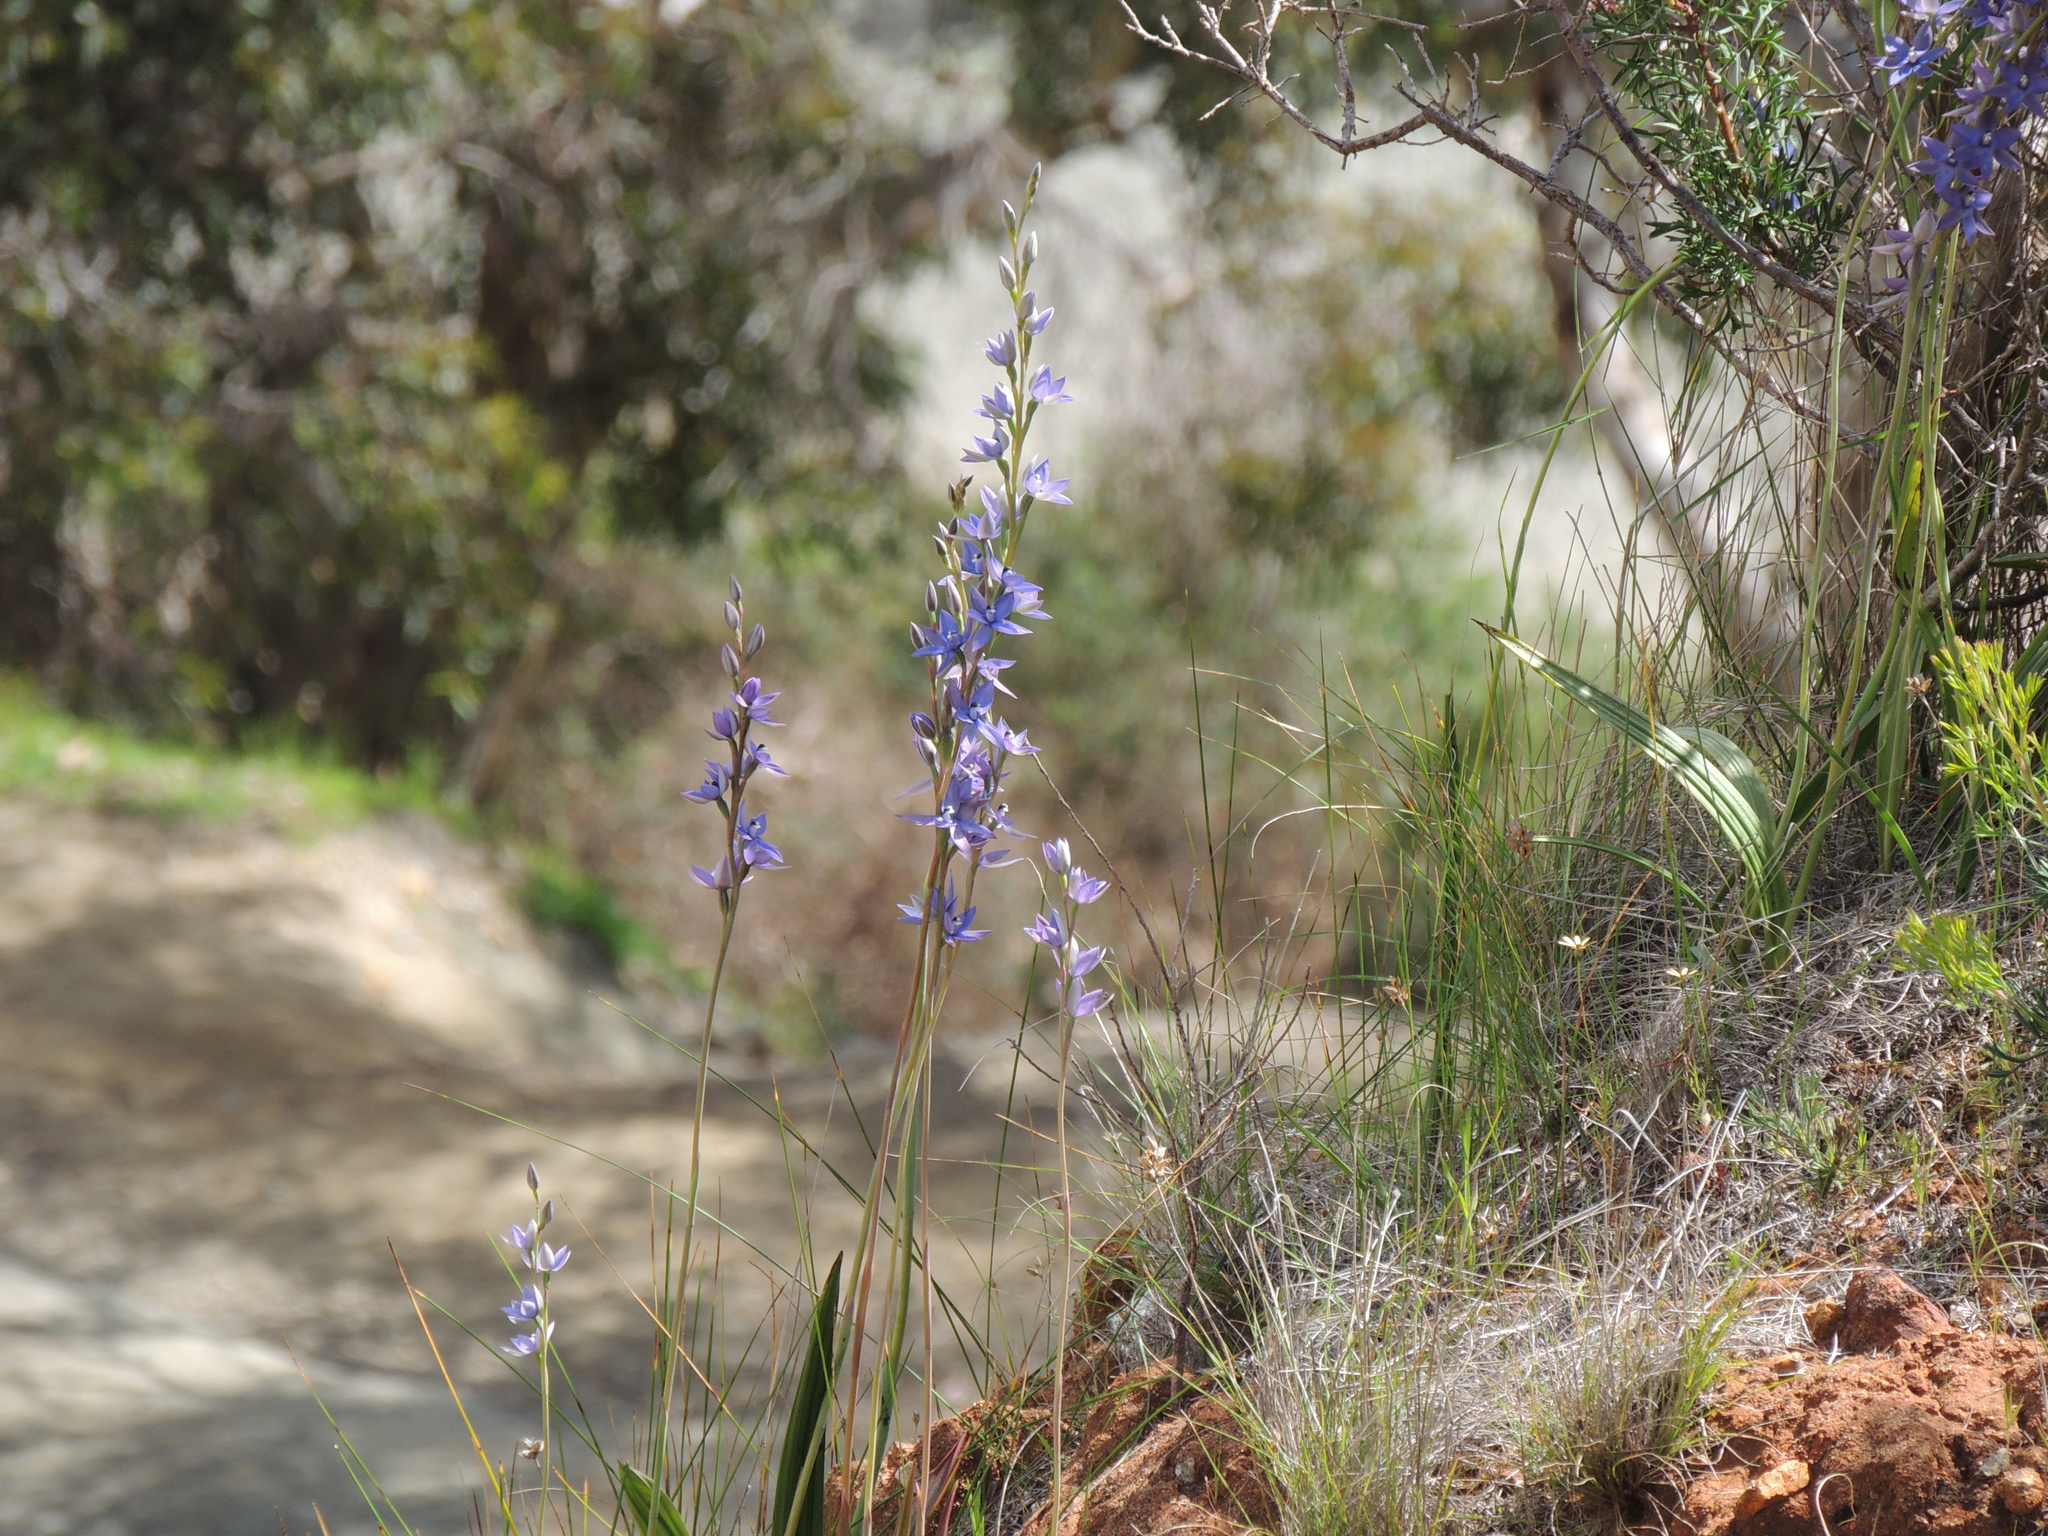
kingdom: Plantae
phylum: Tracheophyta
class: Liliopsida
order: Asparagales
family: Orchidaceae
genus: Thelymitra
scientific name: Thelymitra macrophylla
